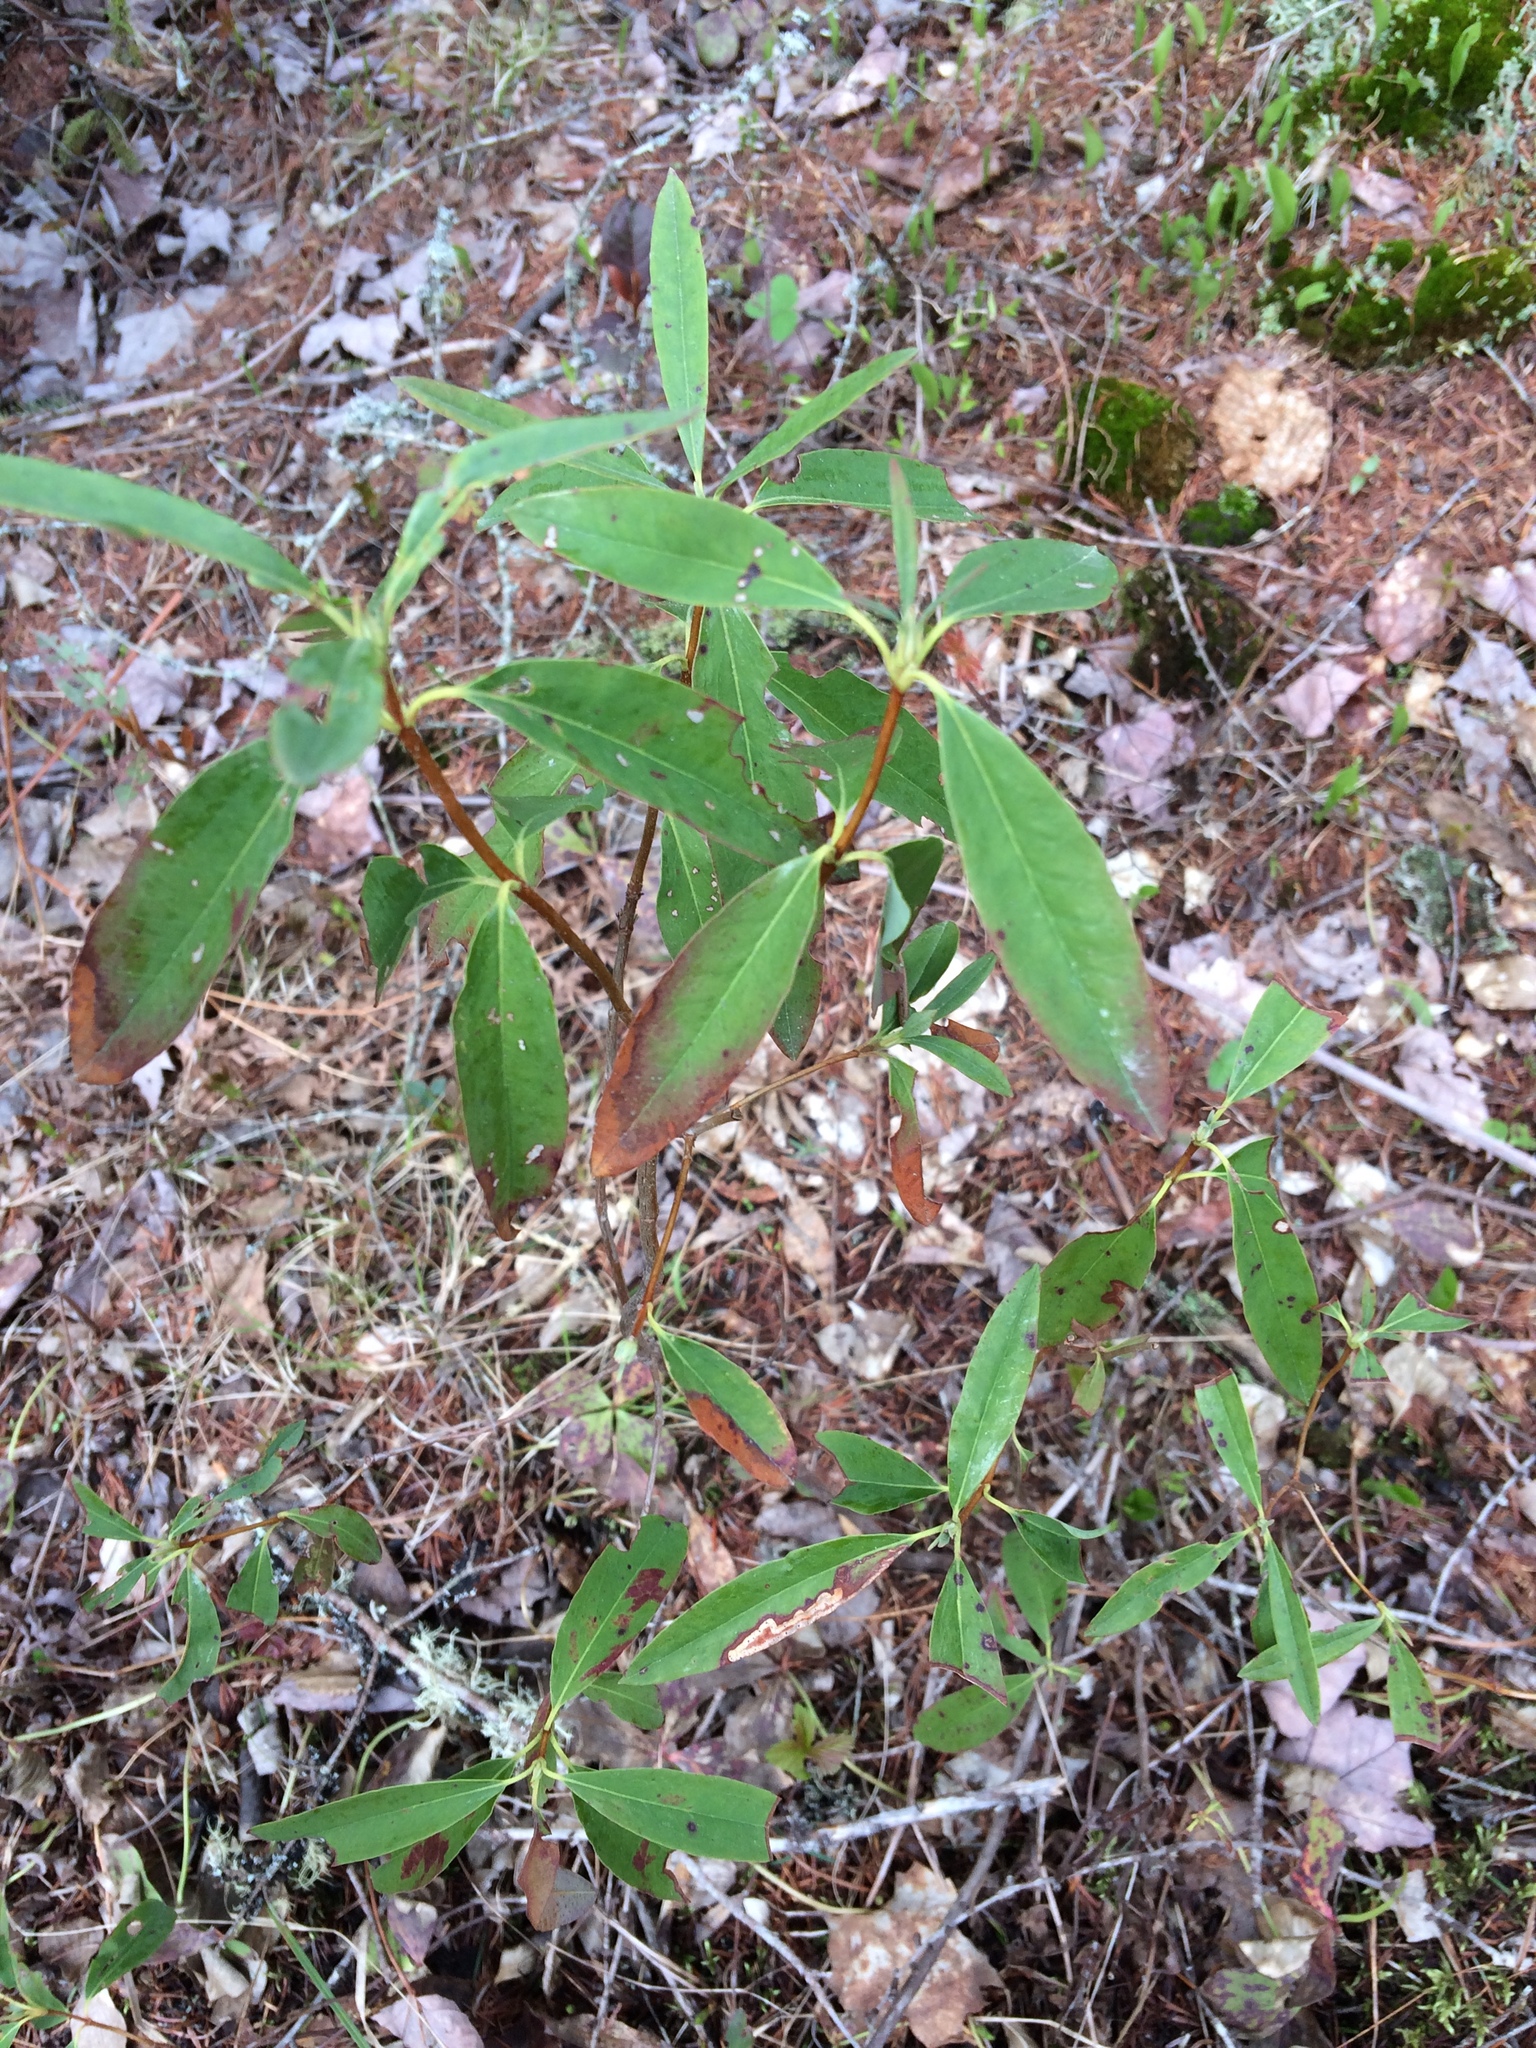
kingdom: Plantae
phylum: Tracheophyta
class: Magnoliopsida
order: Ericales
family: Ericaceae
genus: Kalmia
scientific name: Kalmia angustifolia
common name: Sheep-laurel
